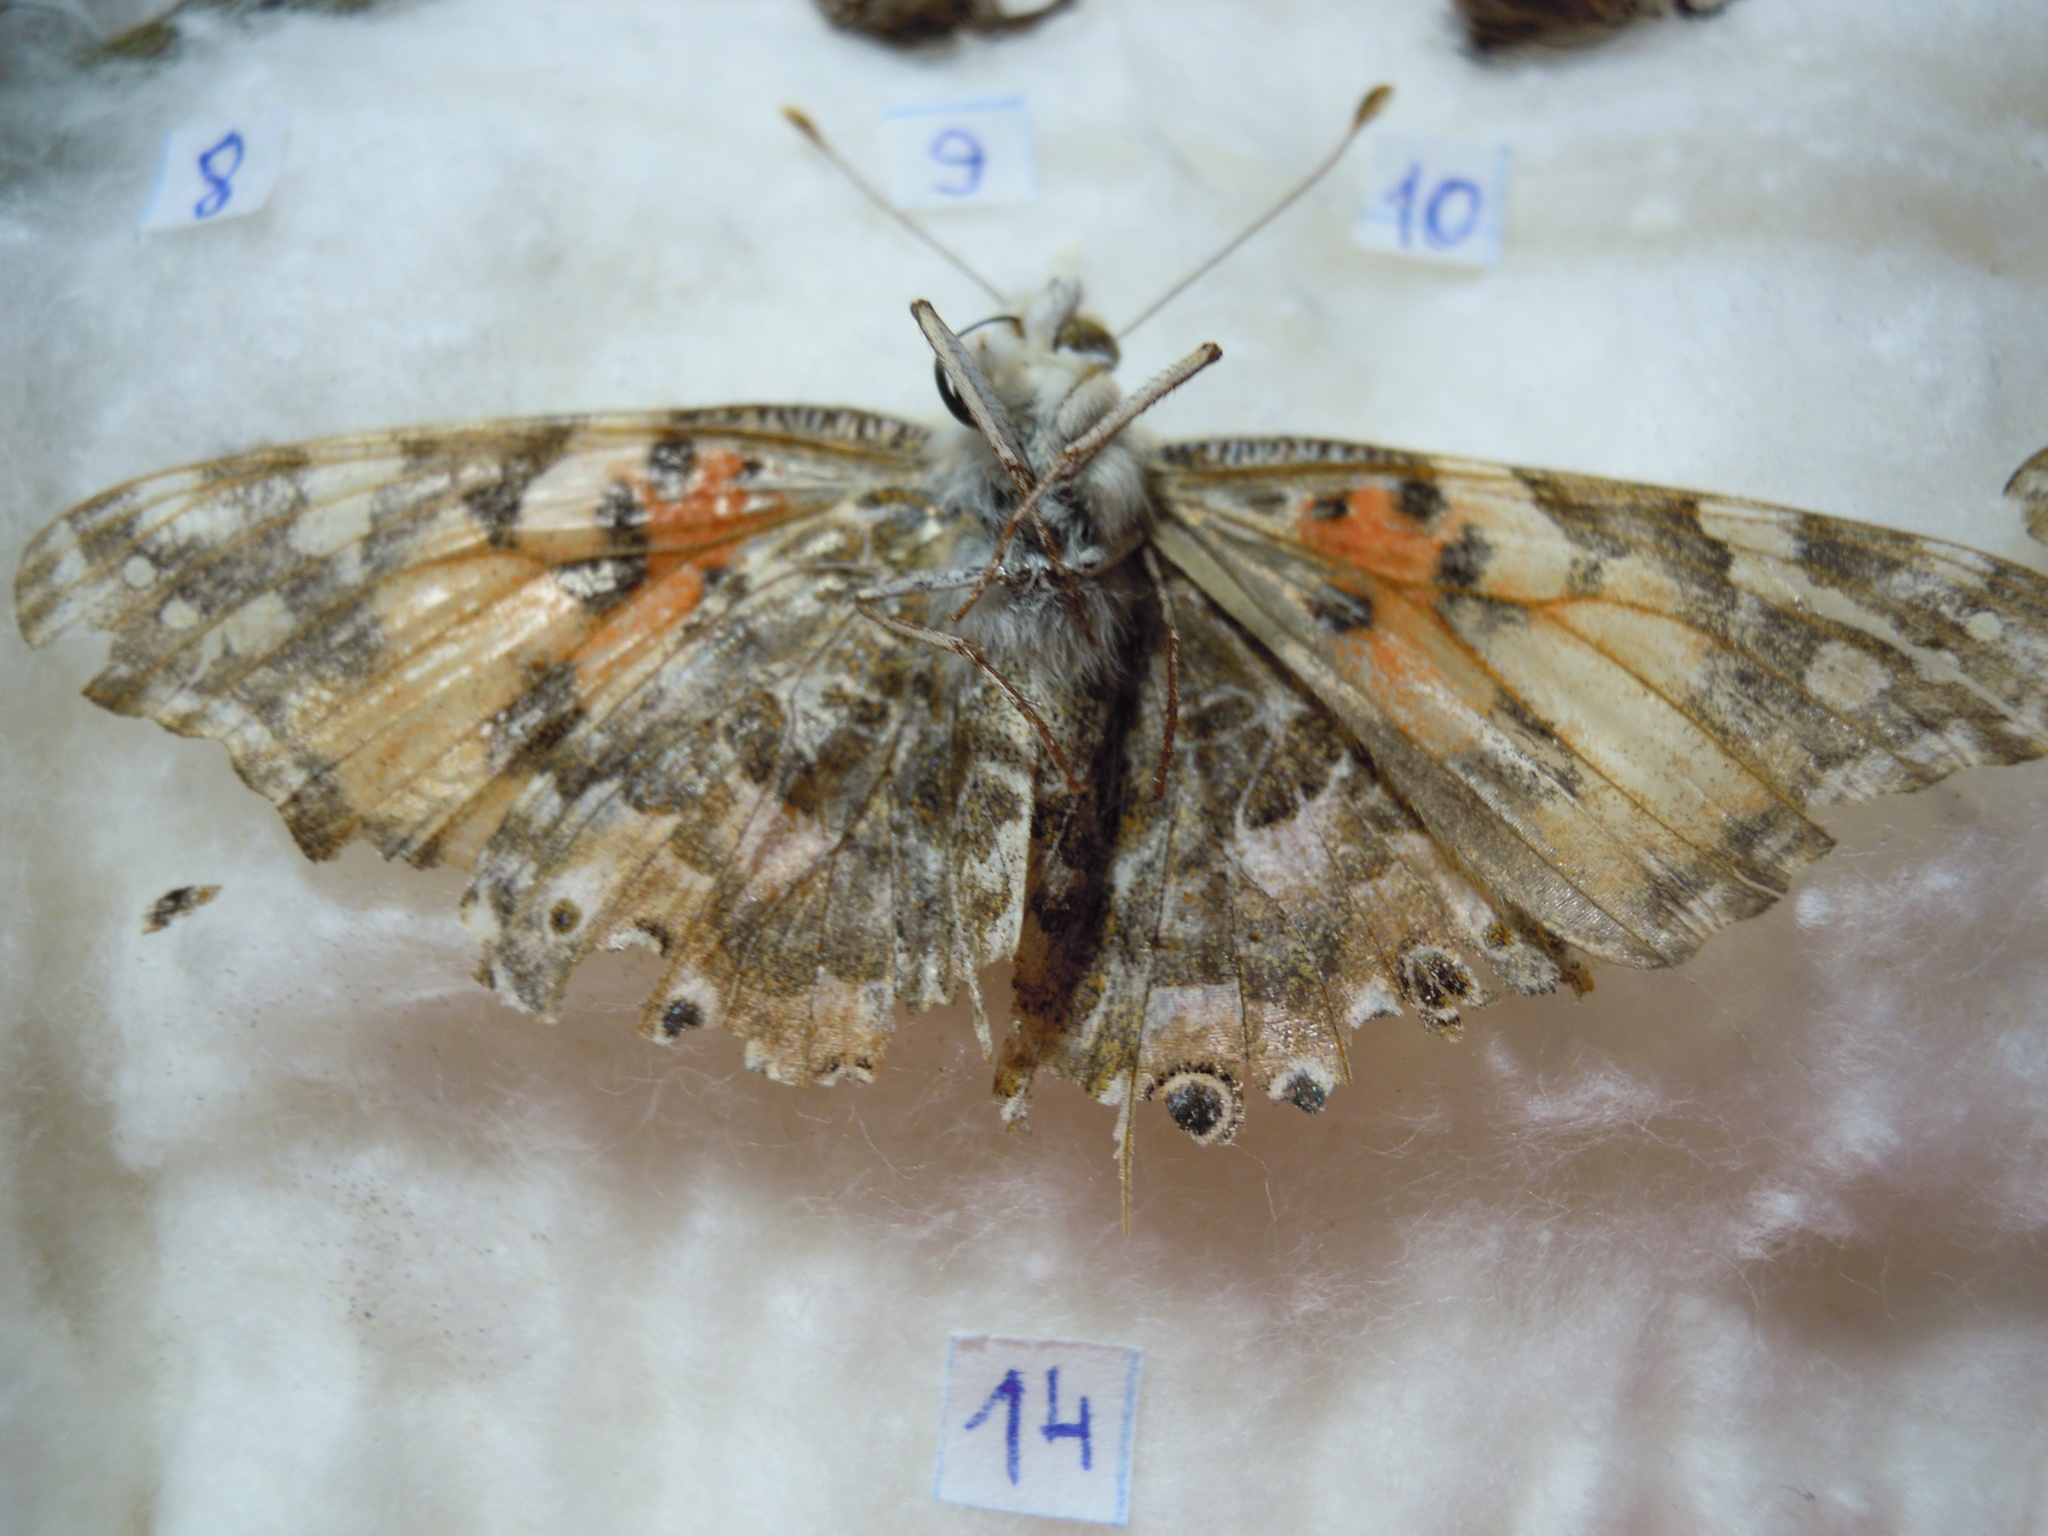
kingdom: Animalia
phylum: Arthropoda
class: Insecta
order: Lepidoptera
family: Nymphalidae
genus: Vanessa
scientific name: Vanessa cardui
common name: Painted lady
